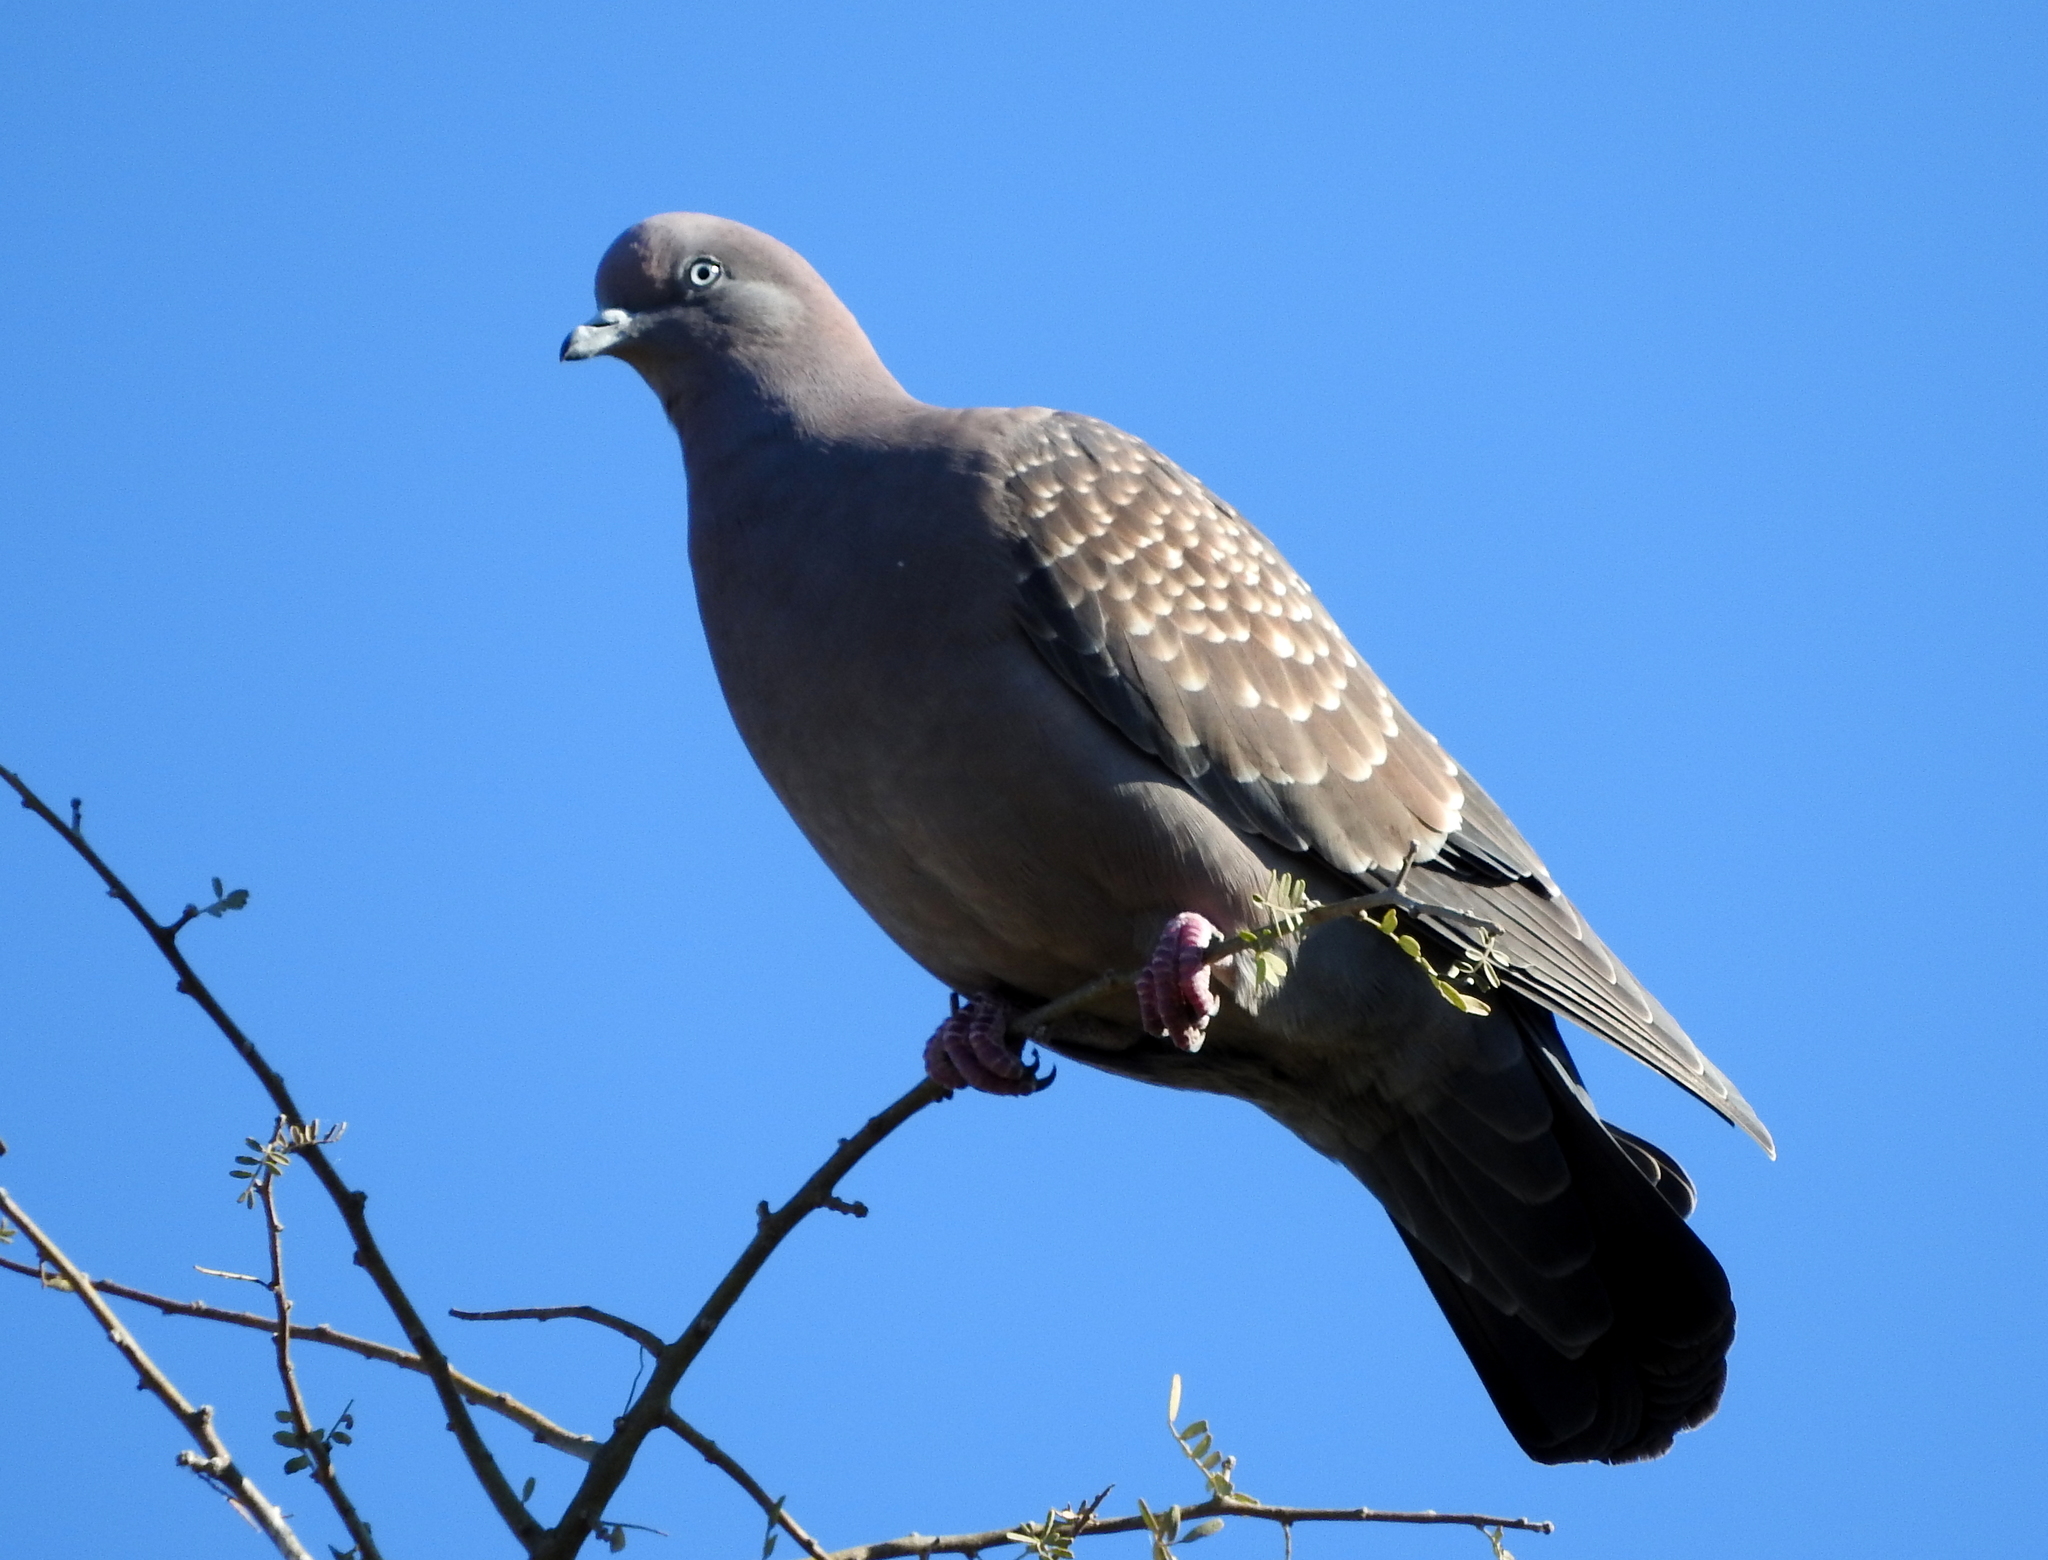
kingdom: Animalia
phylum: Chordata
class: Aves
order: Columbiformes
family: Columbidae
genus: Patagioenas
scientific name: Patagioenas maculosa
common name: Spot-winged pigeon
